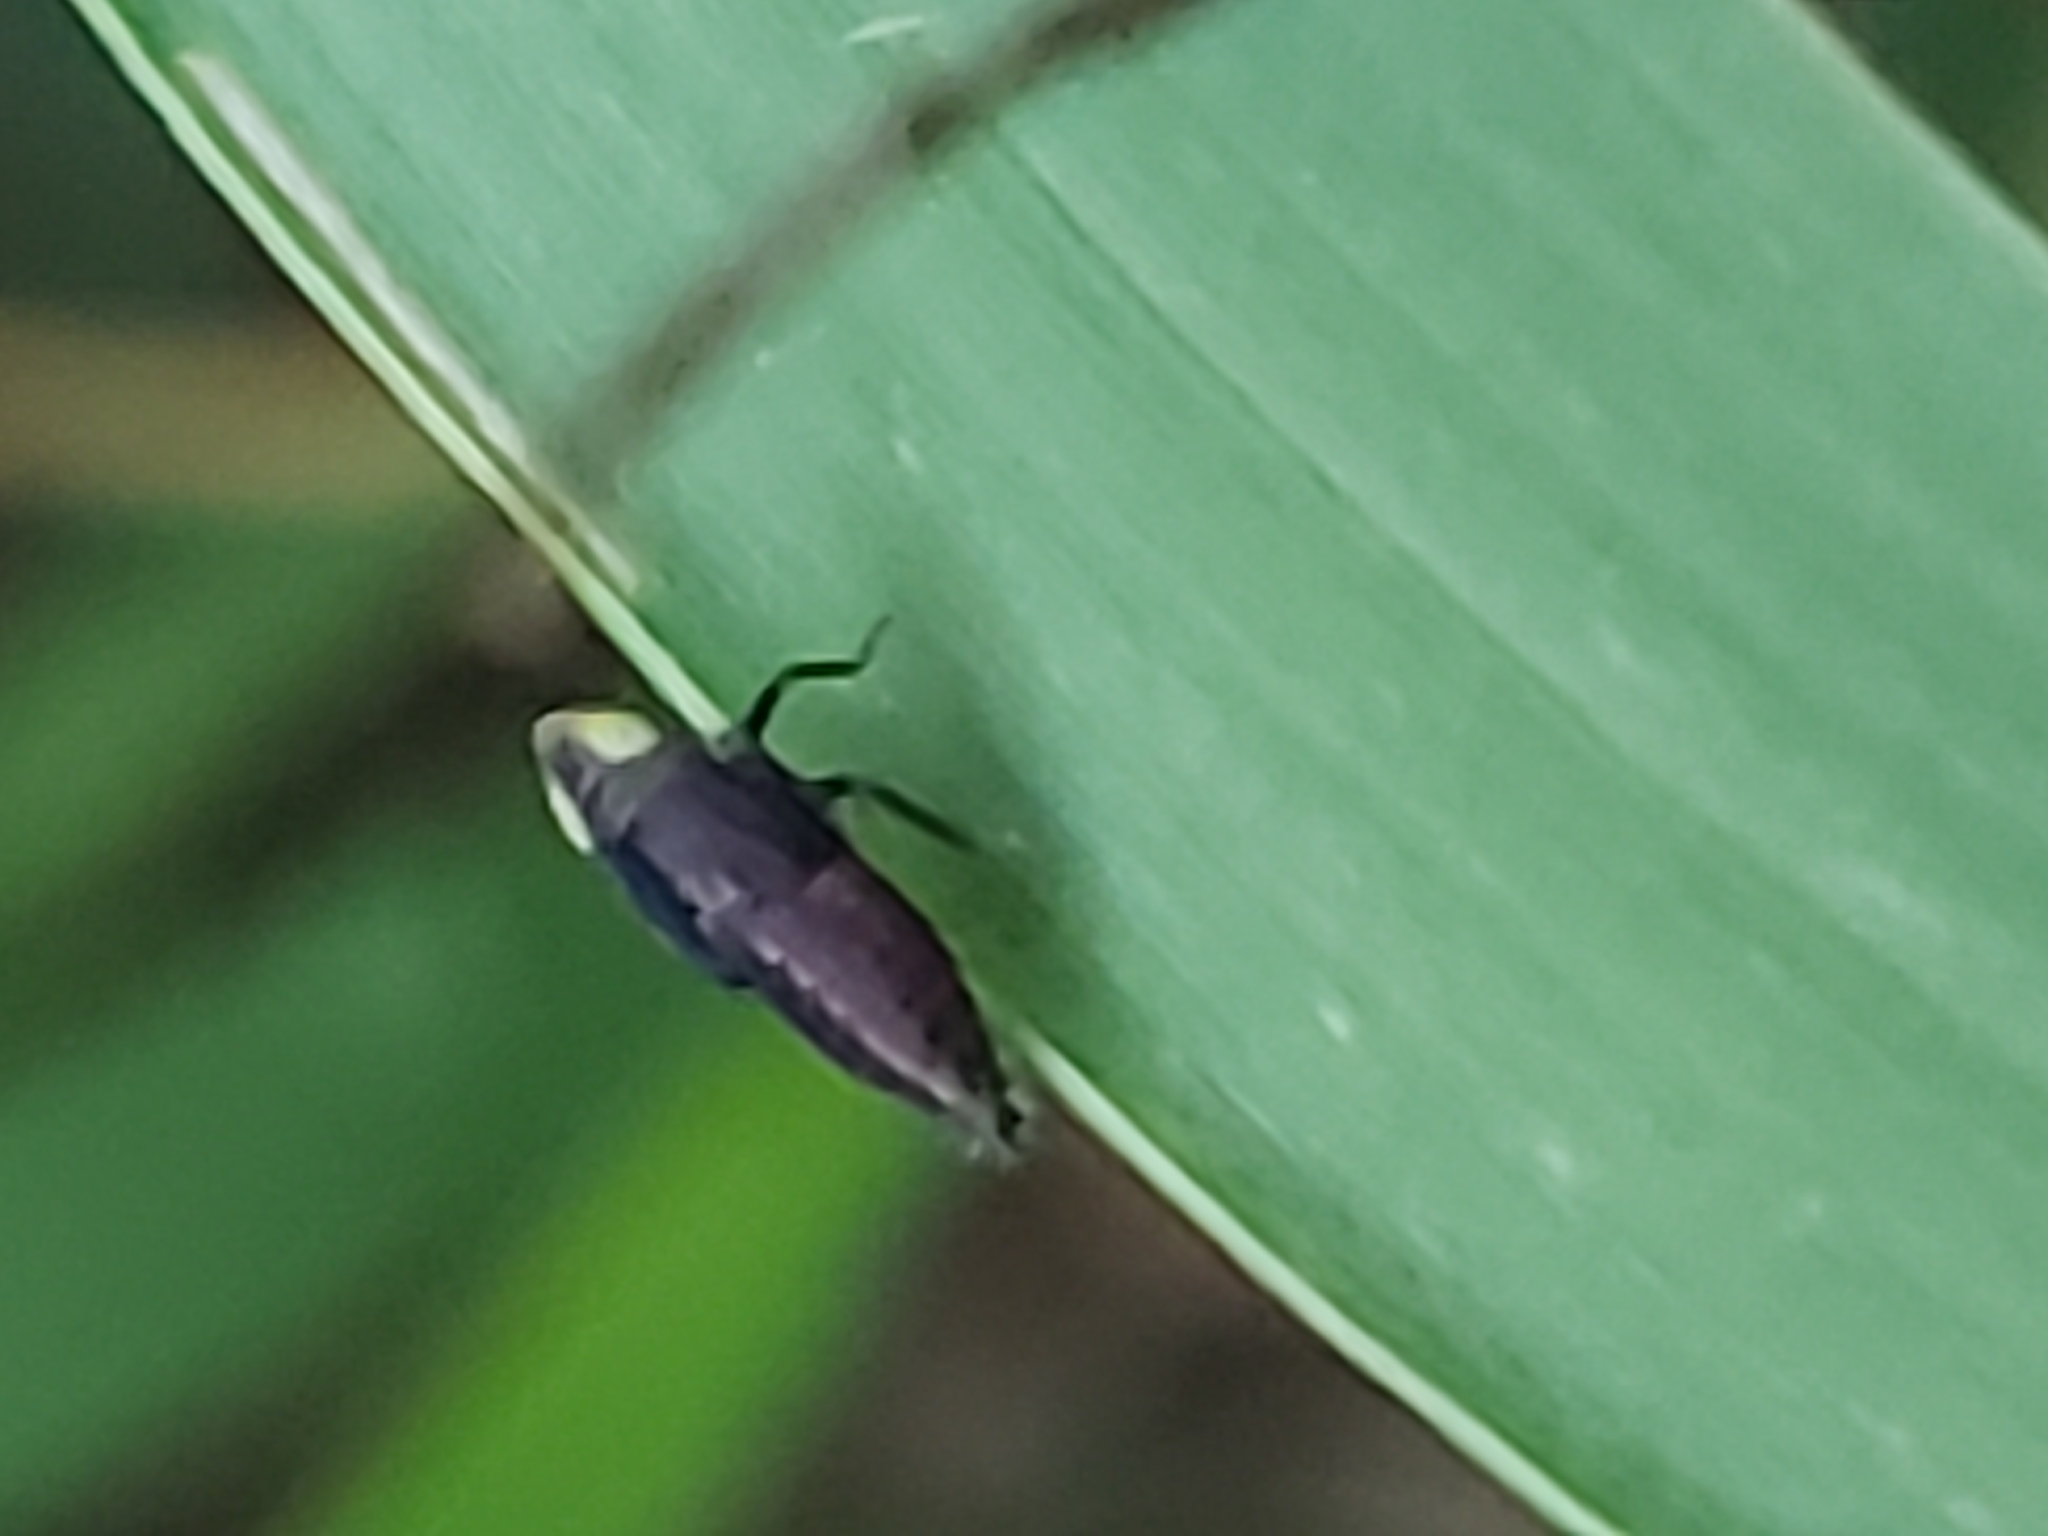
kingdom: Animalia
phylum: Arthropoda
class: Insecta
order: Hemiptera
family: Cicadellidae
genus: Stirellus
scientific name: Stirellus bicolor
